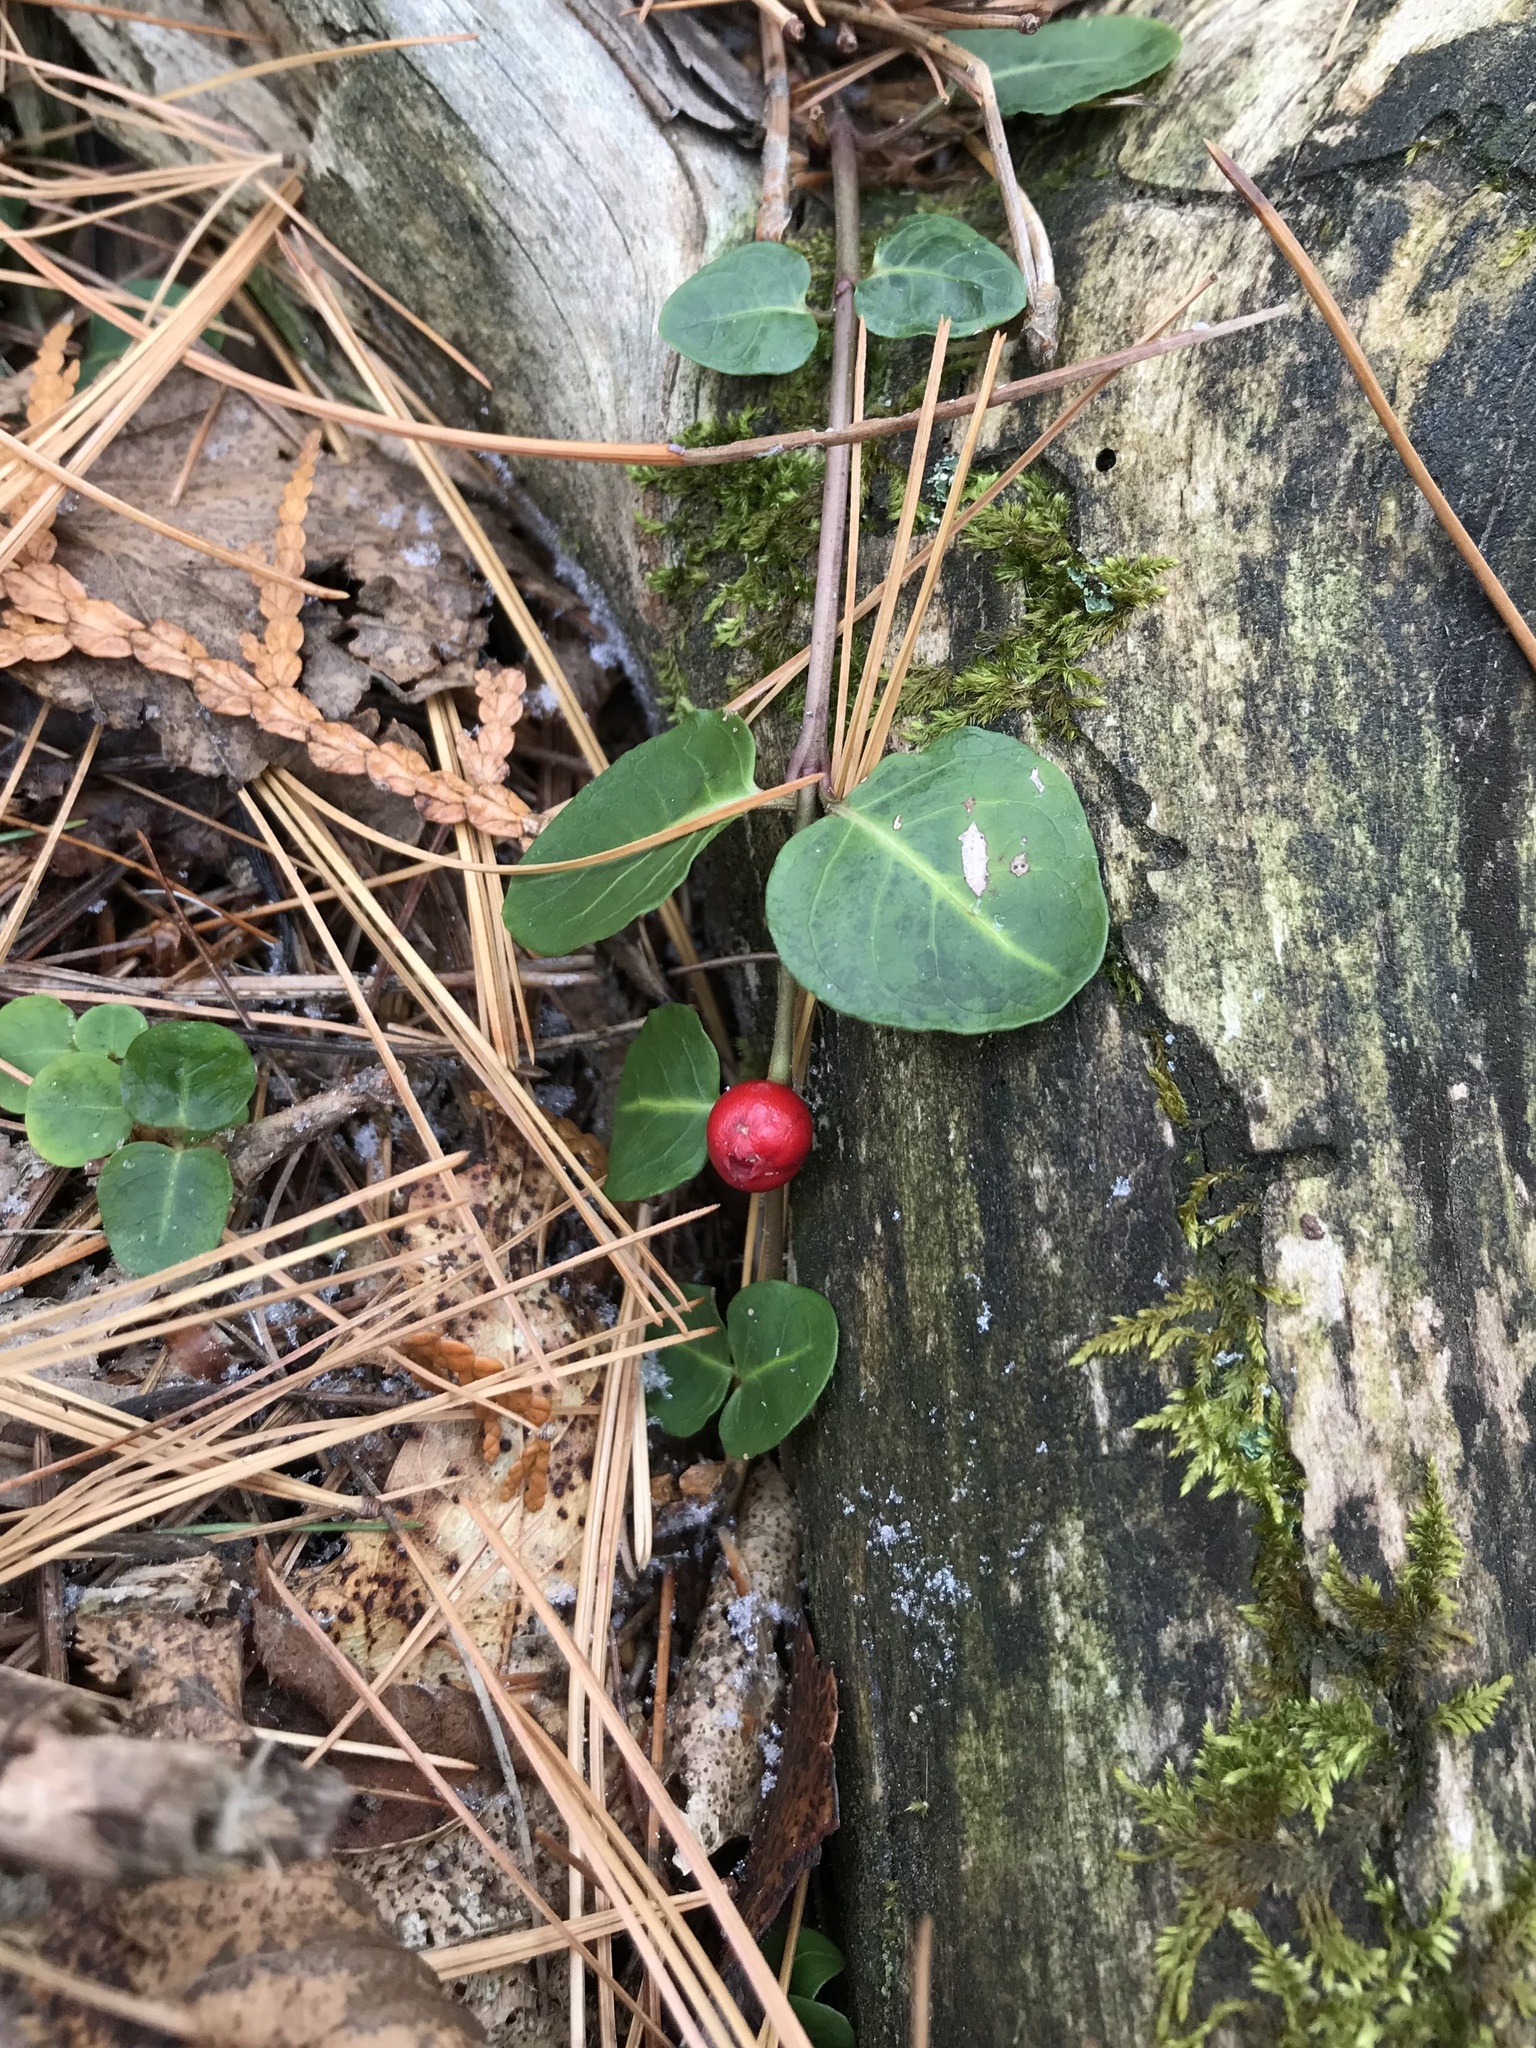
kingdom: Plantae
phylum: Tracheophyta
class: Magnoliopsida
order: Gentianales
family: Rubiaceae
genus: Mitchella
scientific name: Mitchella repens
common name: Partridge-berry
